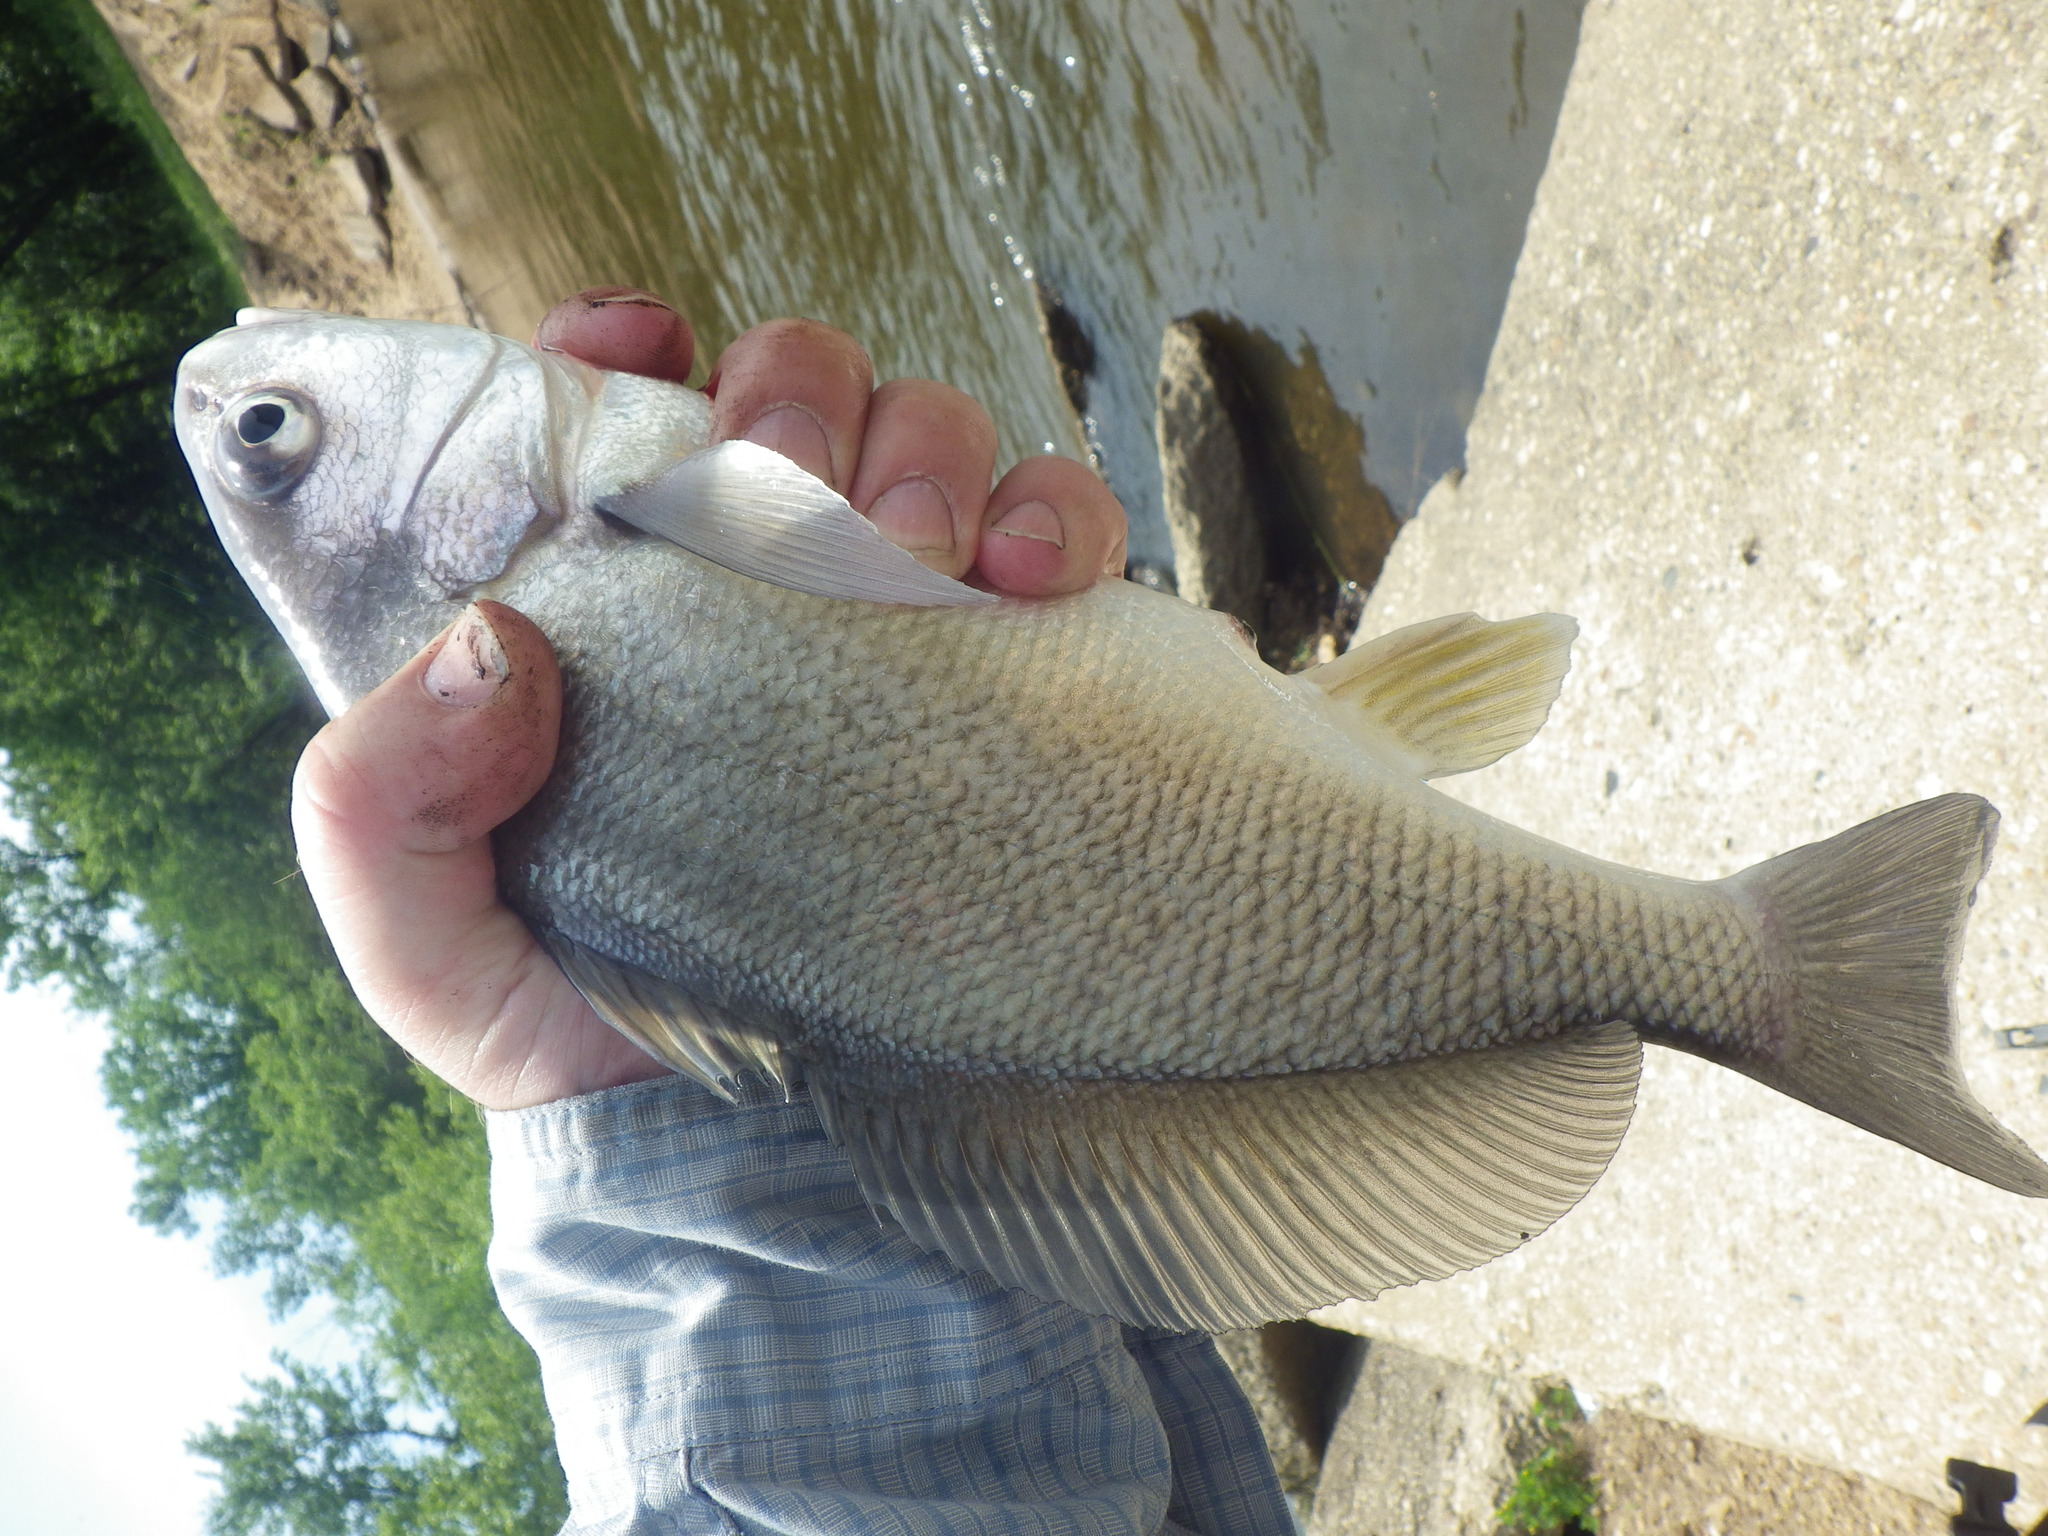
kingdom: Animalia
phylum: Chordata
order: Perciformes
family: Sciaenidae
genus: Aplodinotus
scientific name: Aplodinotus grunniens
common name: Freshwater drum
